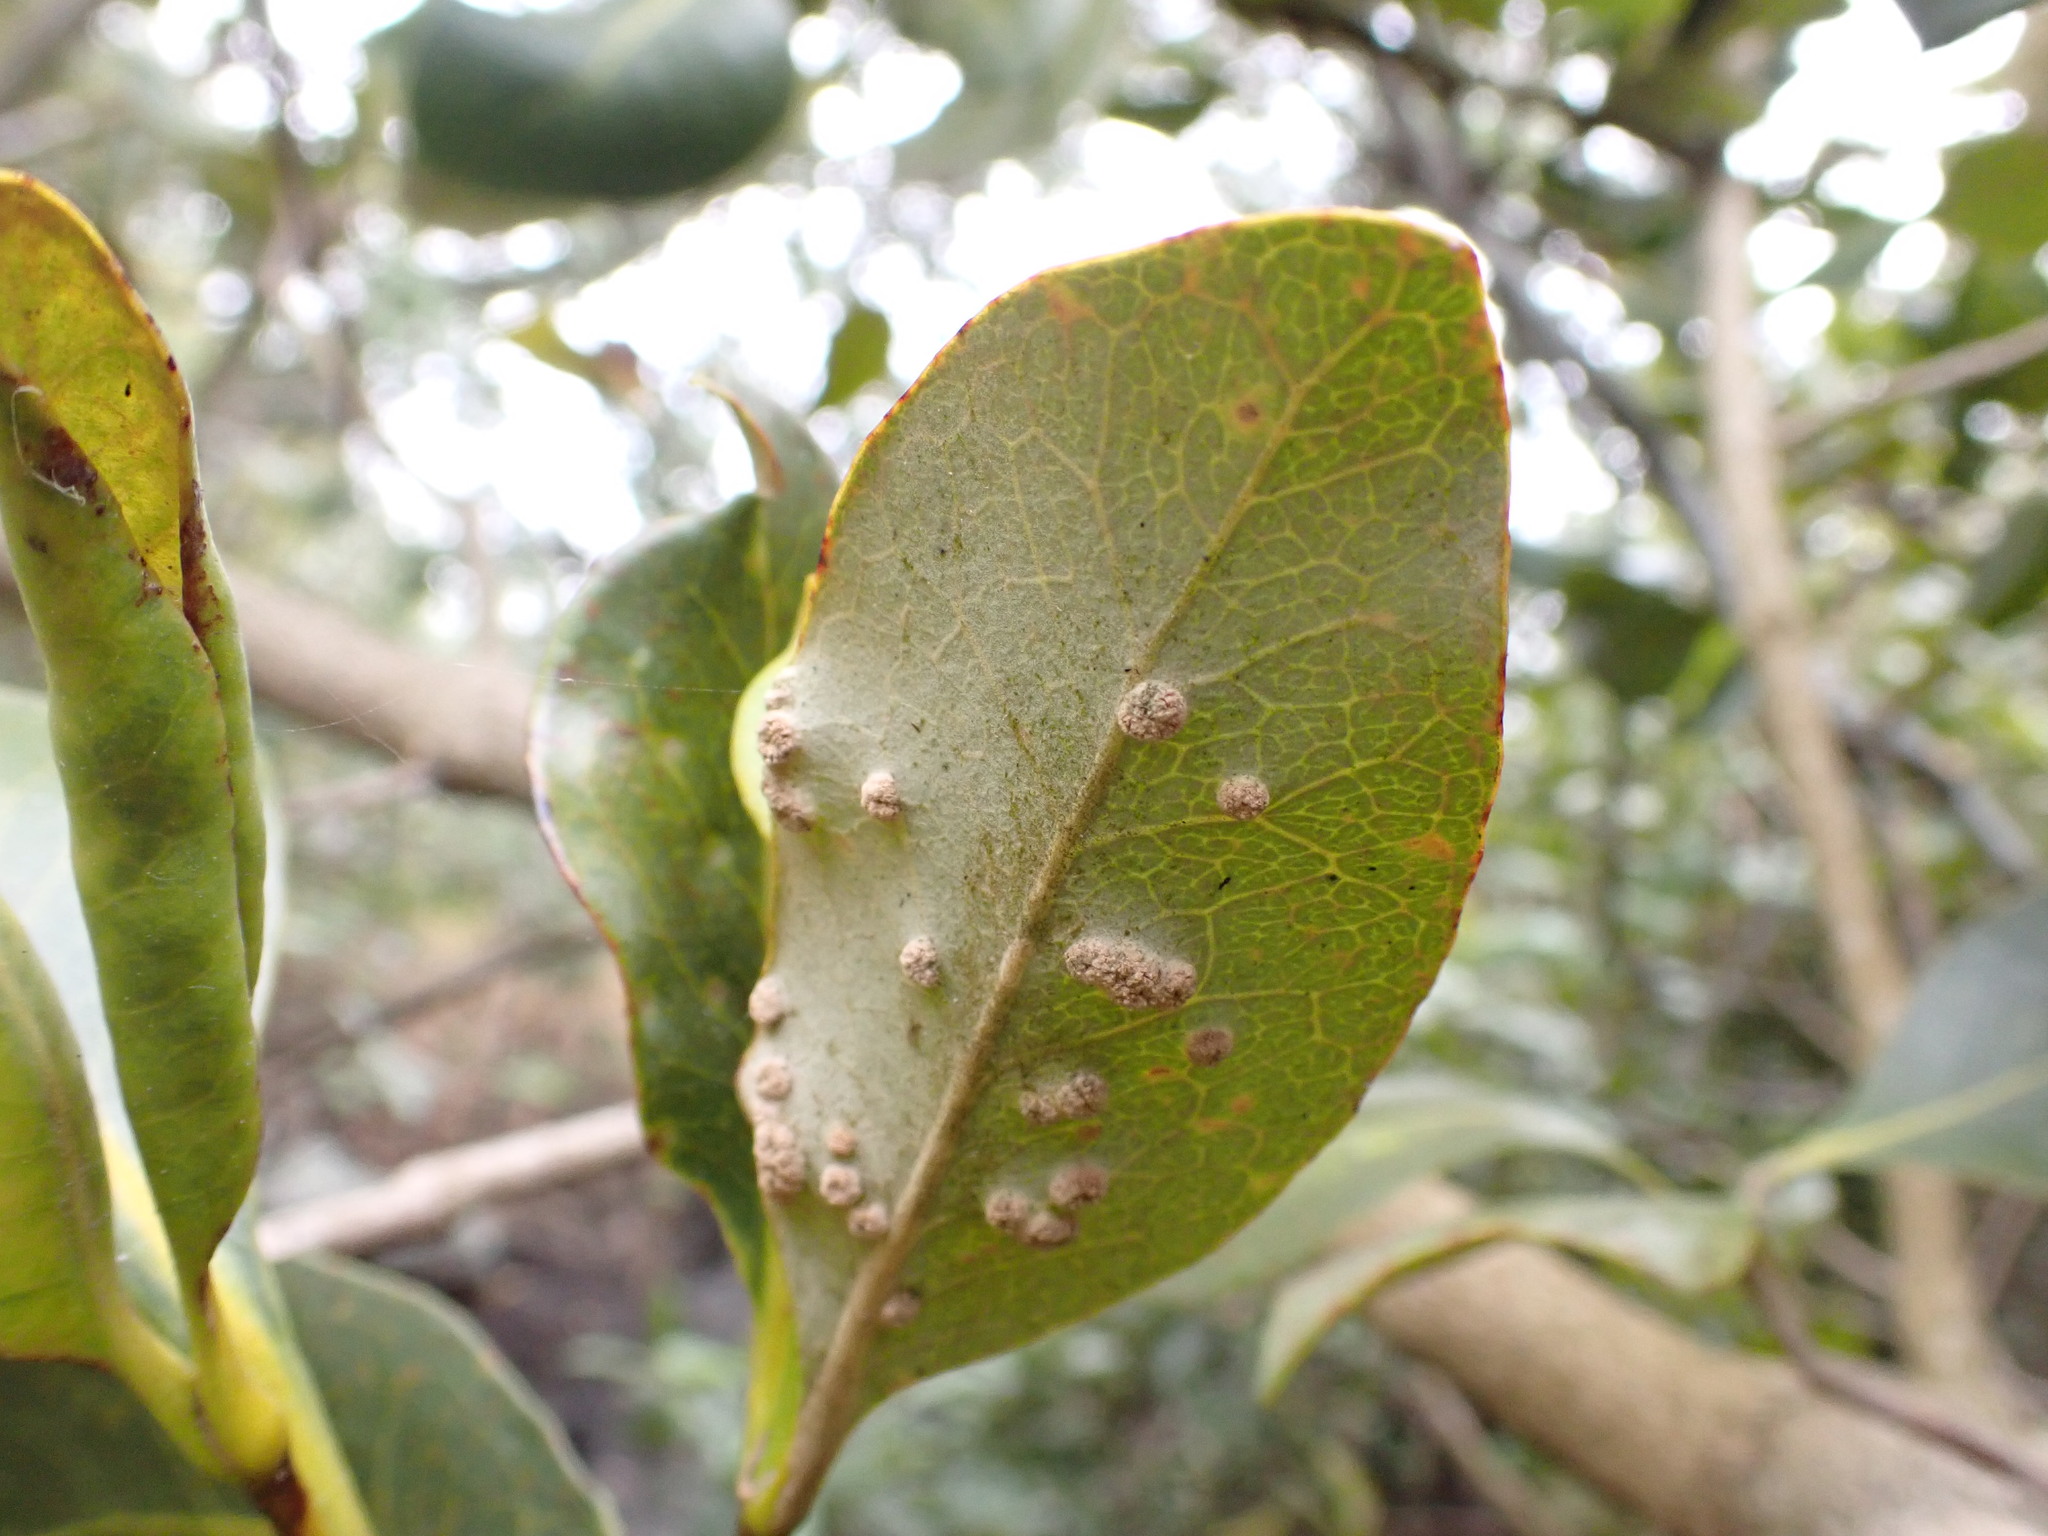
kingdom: Animalia
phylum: Arthropoda
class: Arachnida
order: Trombidiformes
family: Eriophyidae
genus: Acalitus
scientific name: Acalitus
